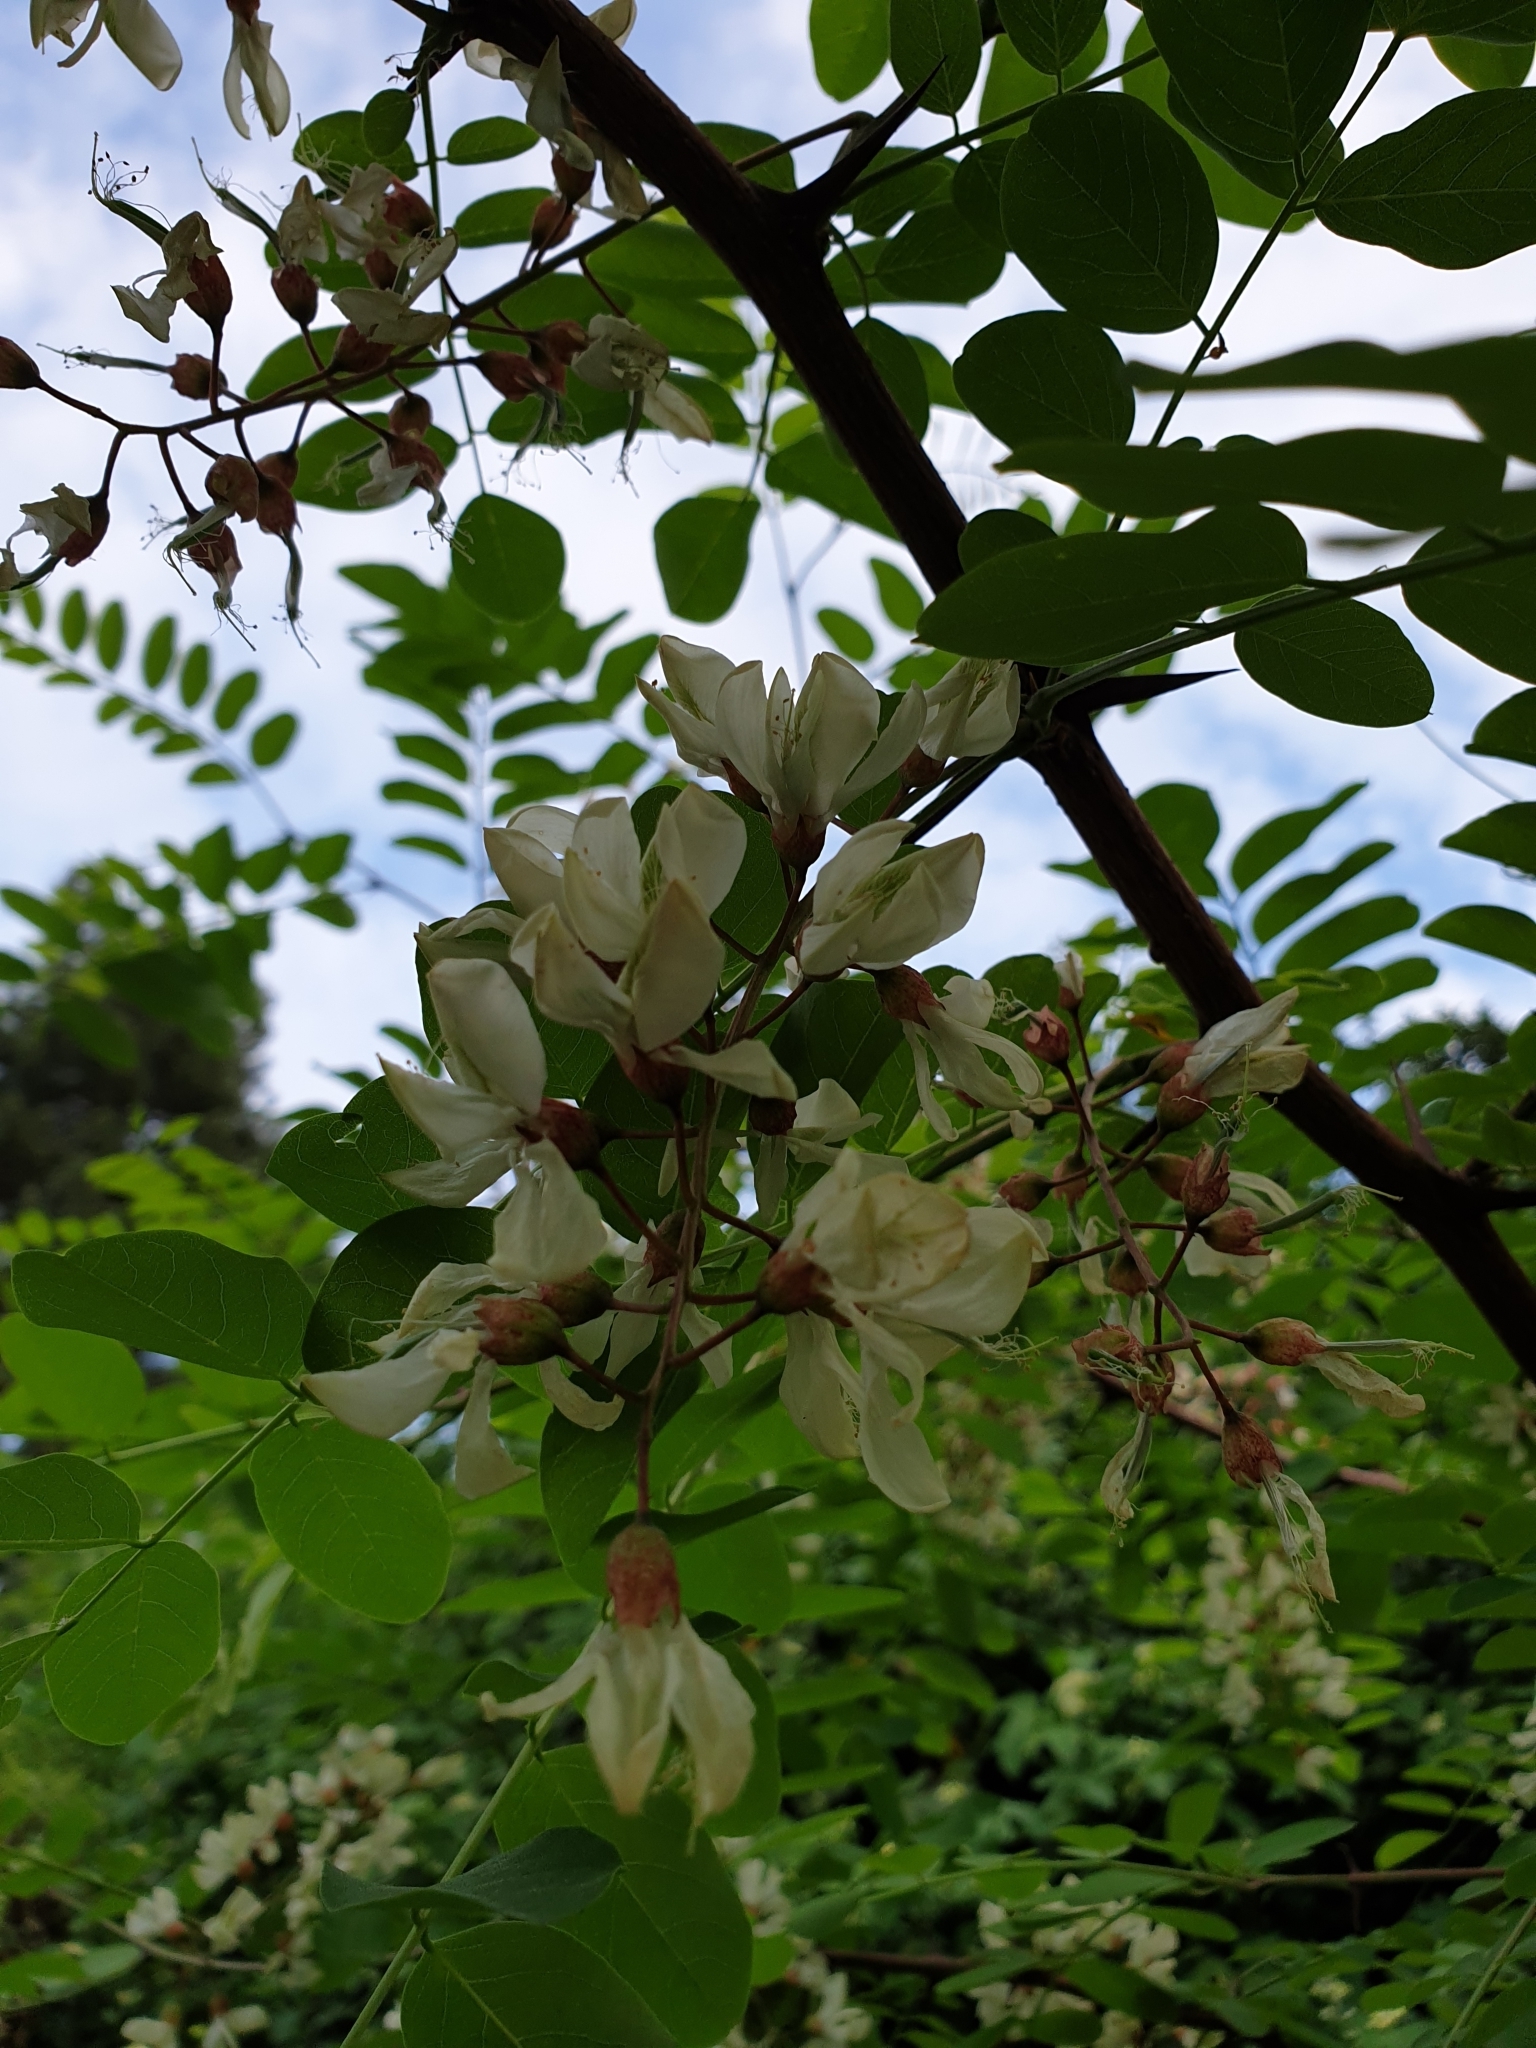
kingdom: Plantae
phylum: Tracheophyta
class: Magnoliopsida
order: Fabales
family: Fabaceae
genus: Robinia
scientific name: Robinia pseudoacacia
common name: Black locust
